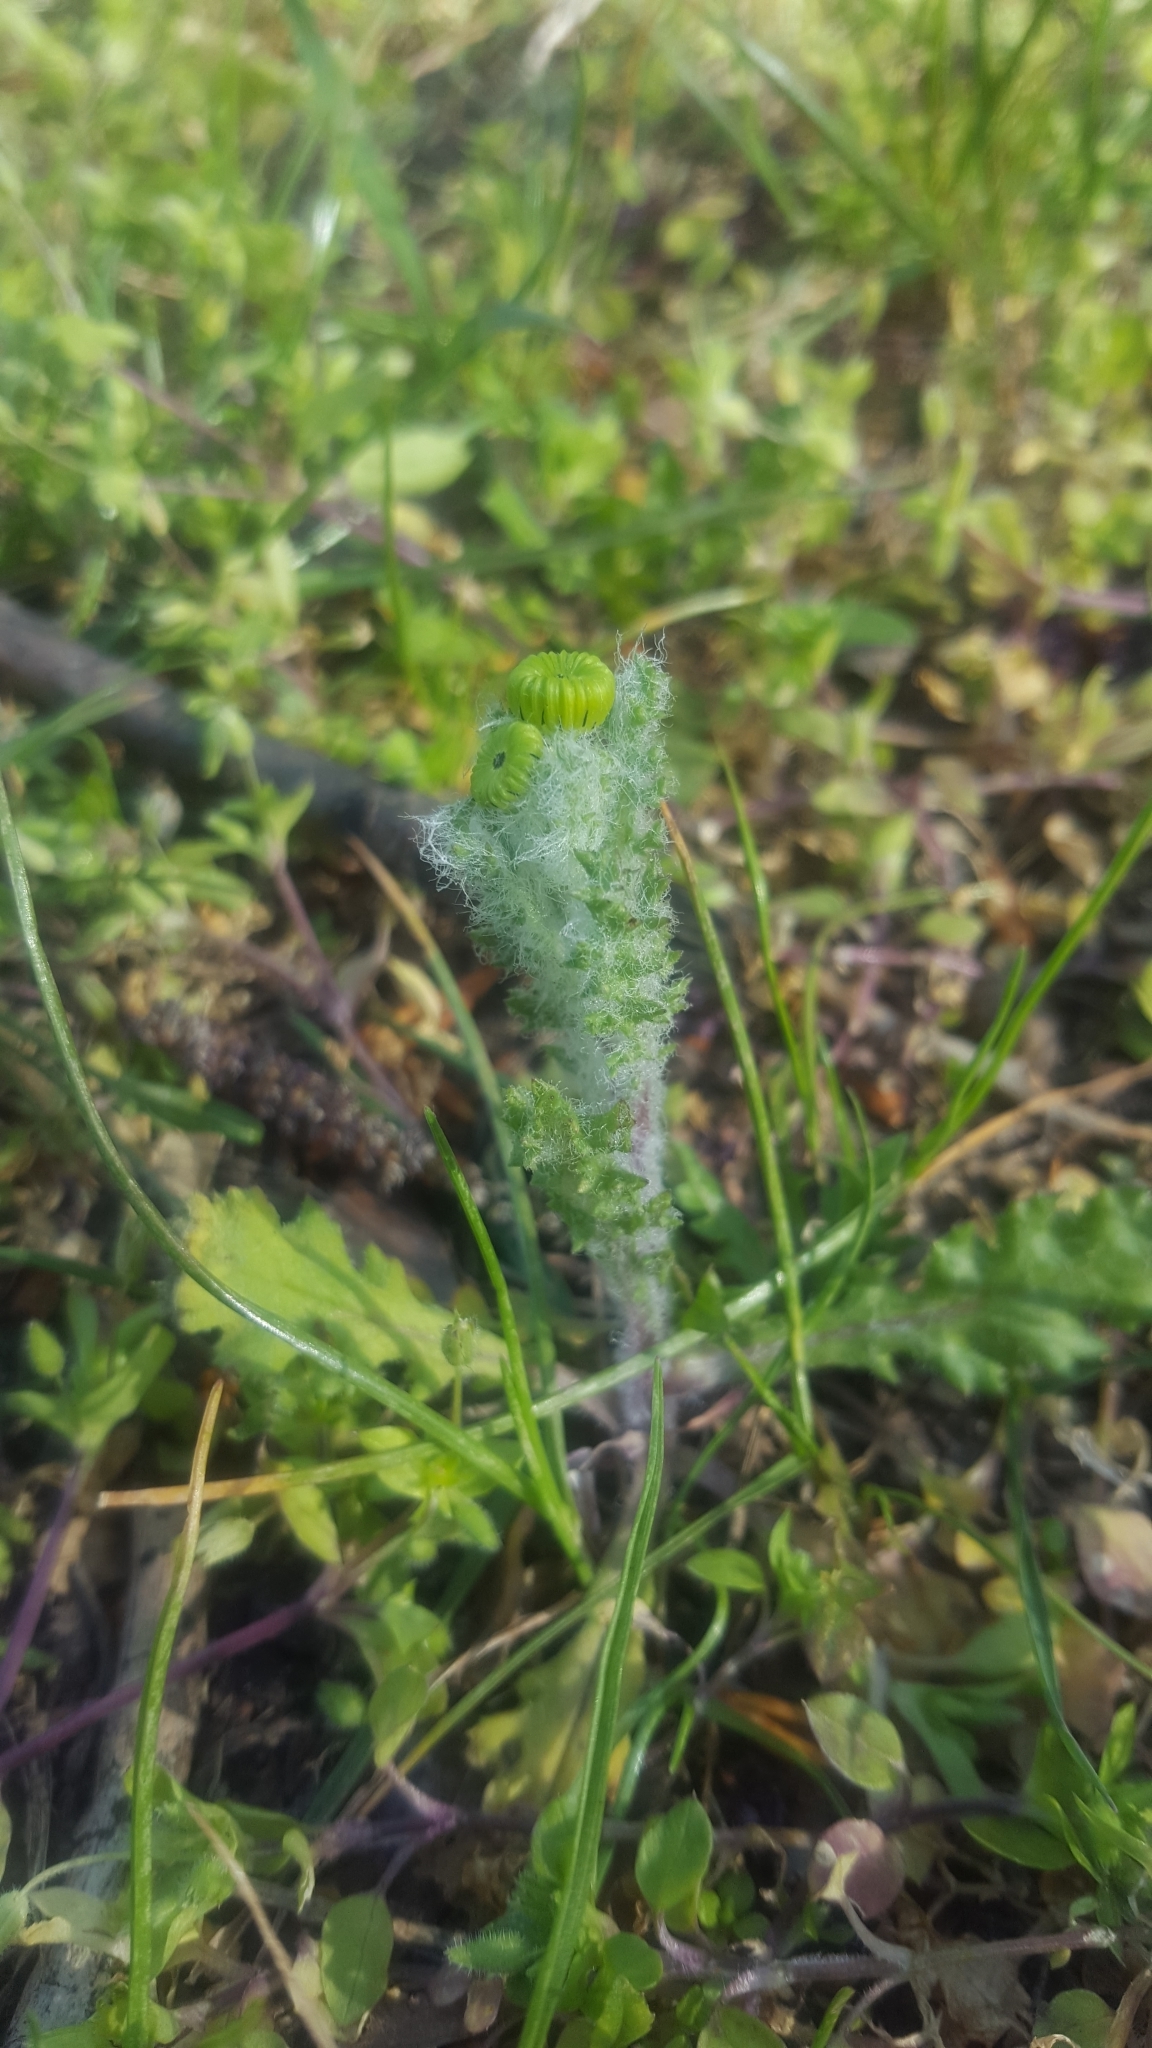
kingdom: Plantae
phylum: Tracheophyta
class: Magnoliopsida
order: Asterales
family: Asteraceae
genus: Senecio
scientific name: Senecio vernalis
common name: Eastern groundsel
